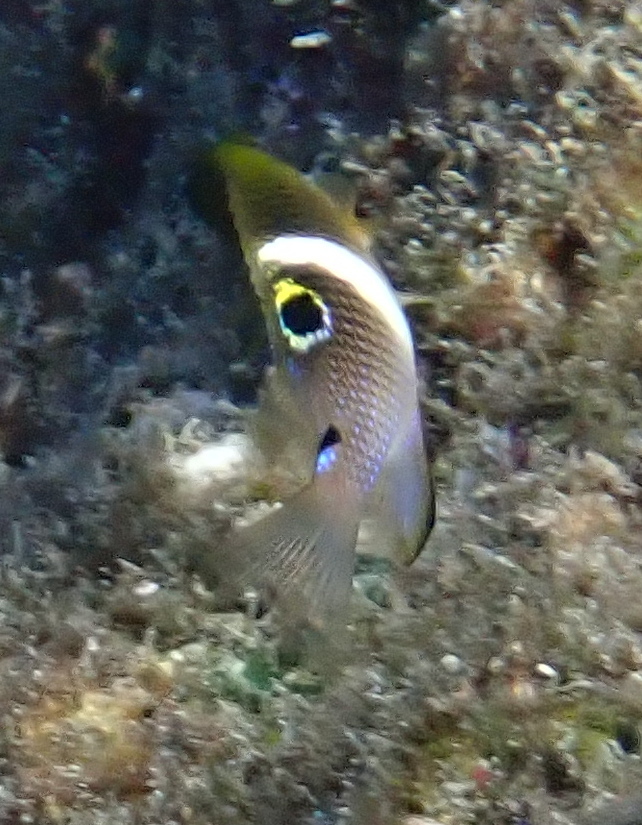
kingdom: Animalia
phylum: Chordata
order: Perciformes
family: Pomacentridae
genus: Plectroglyphidodon
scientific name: Plectroglyphidodon leucozonus
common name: White-band damsel
